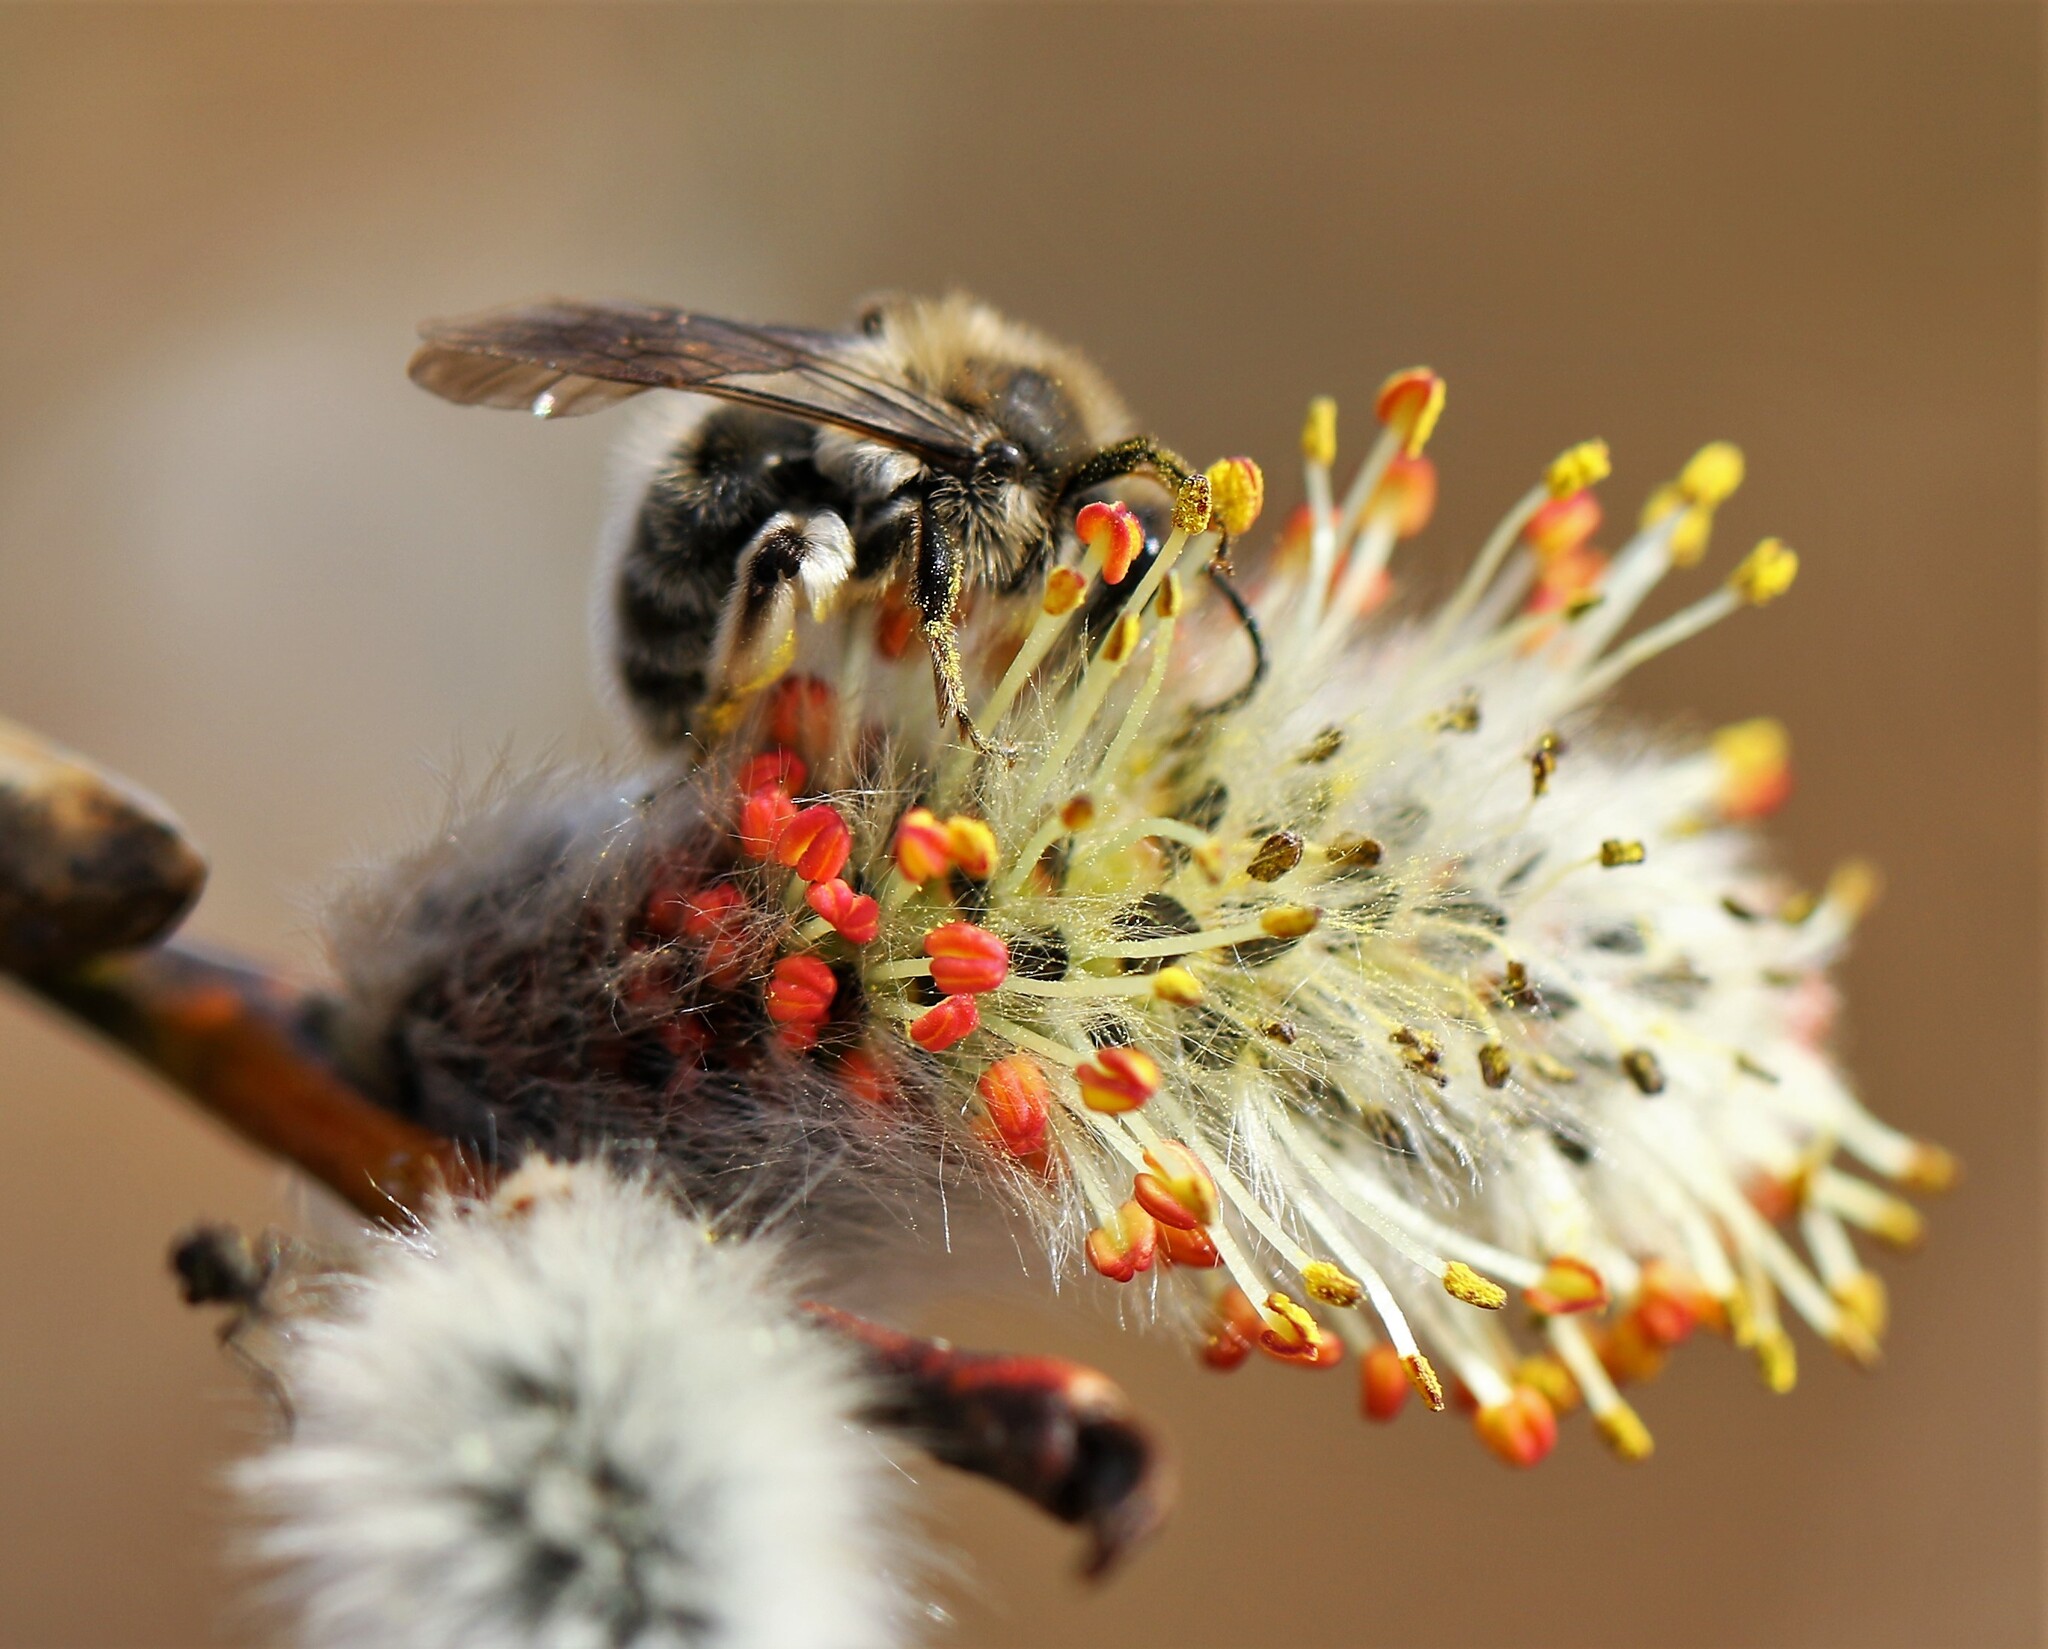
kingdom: Animalia
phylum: Arthropoda
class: Insecta
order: Hymenoptera
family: Andrenidae
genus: Andrena
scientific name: Andrena frigida
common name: Frigid mining bee
